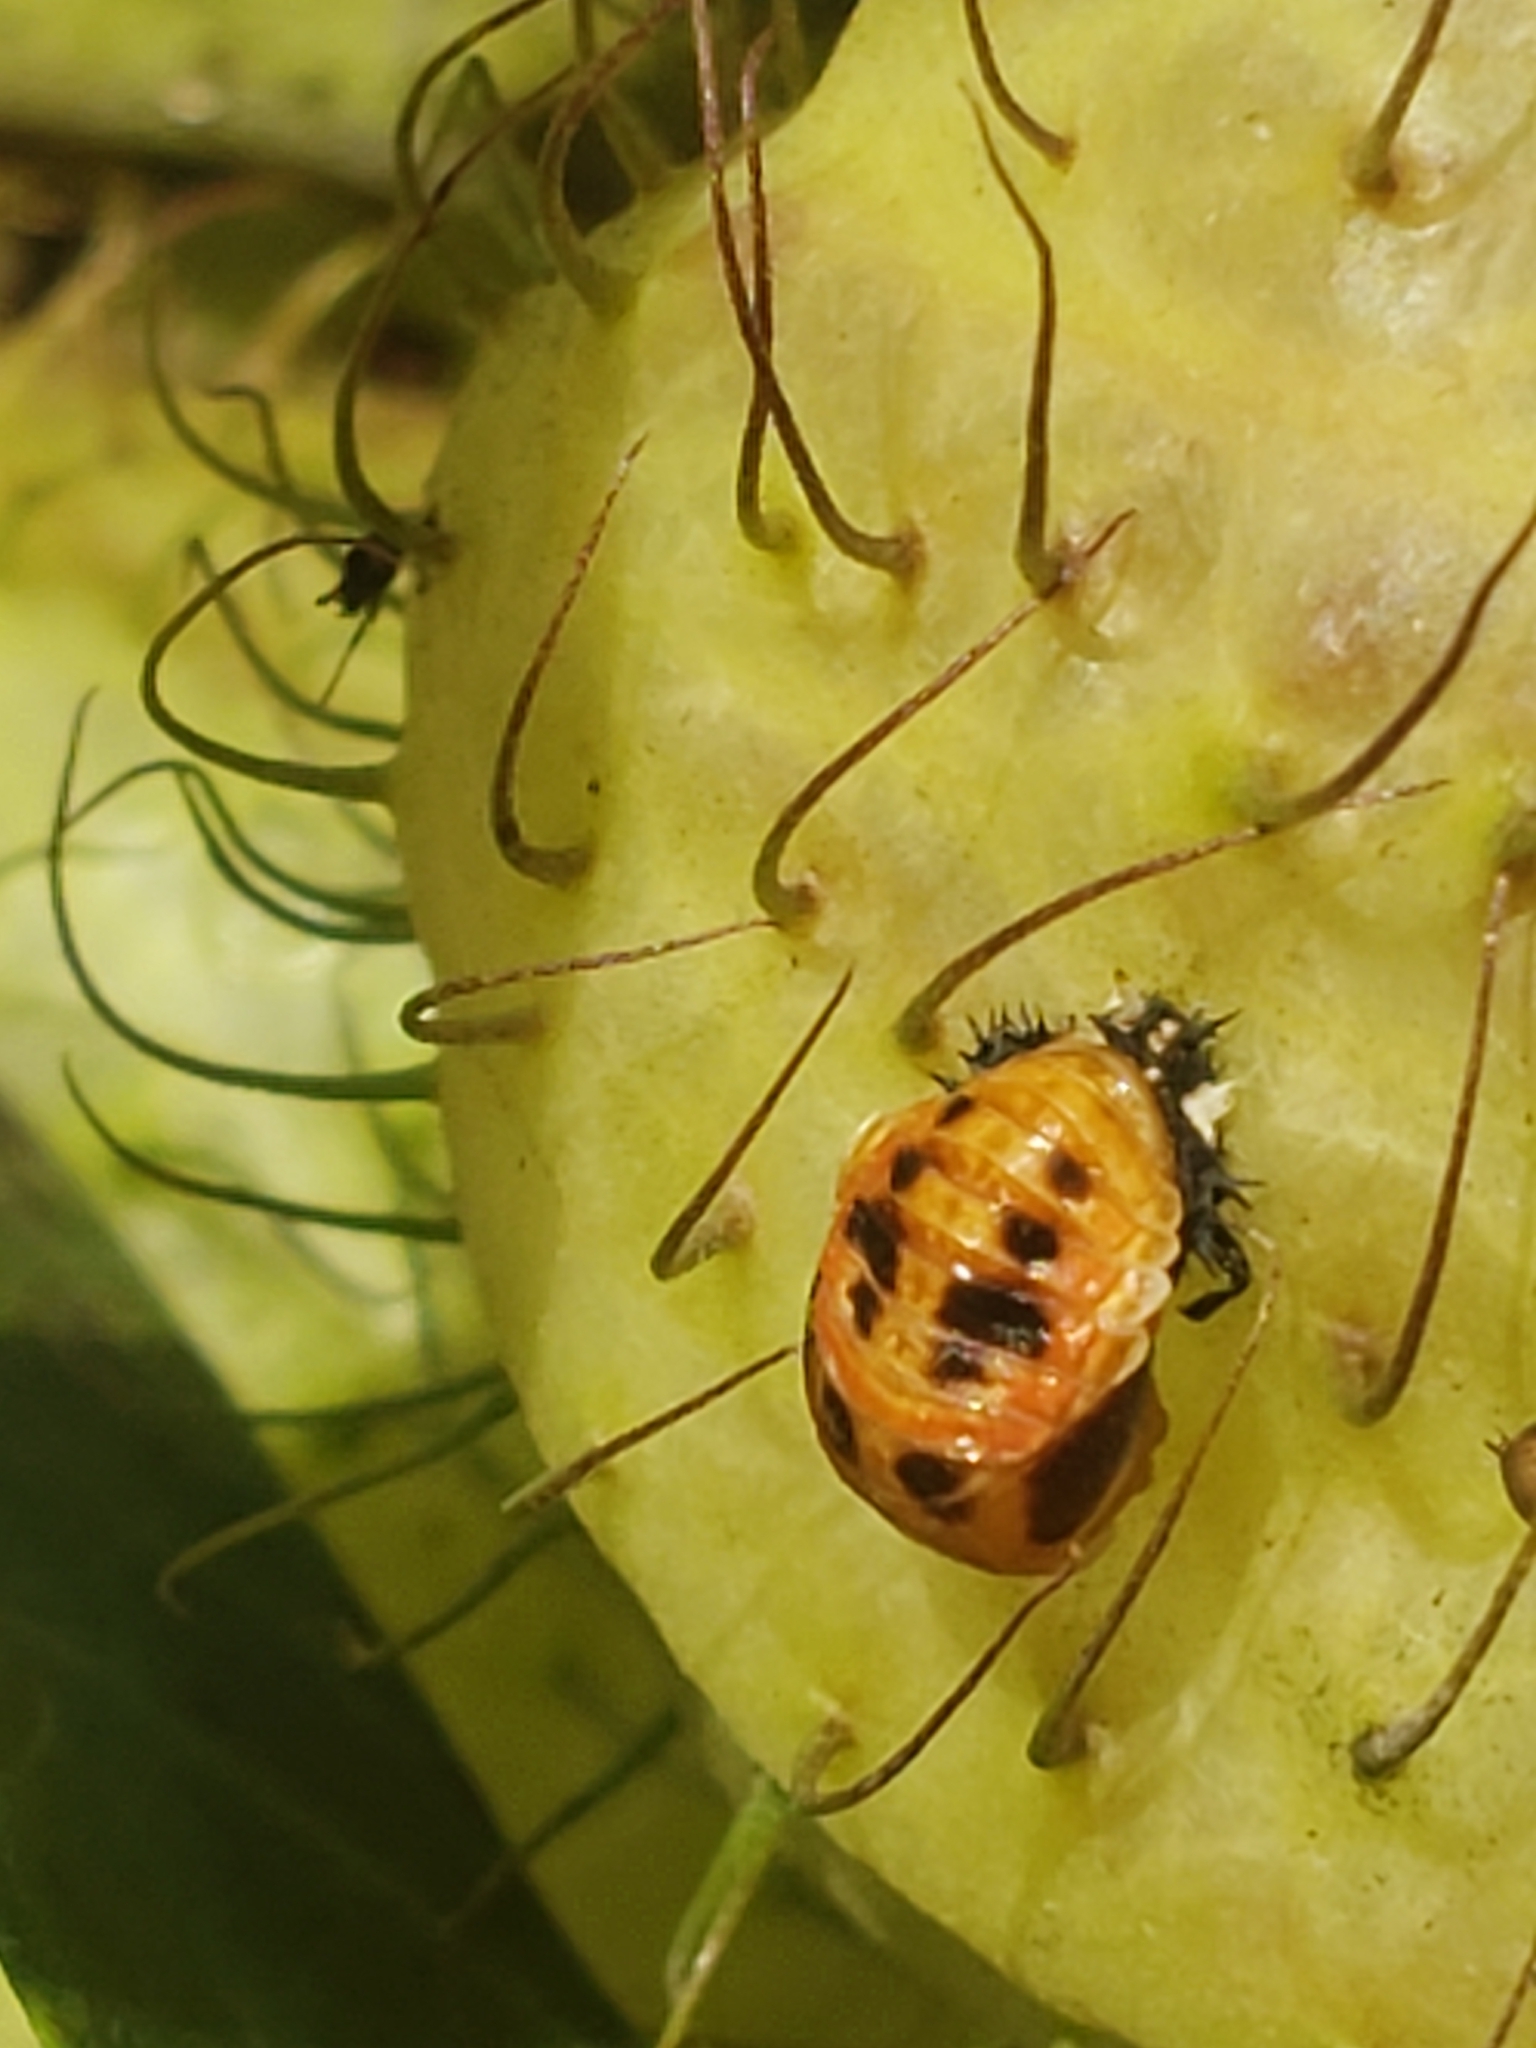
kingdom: Animalia
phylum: Arthropoda
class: Insecta
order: Coleoptera
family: Coccinellidae
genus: Harmonia
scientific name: Harmonia axyridis
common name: Harlequin ladybird
